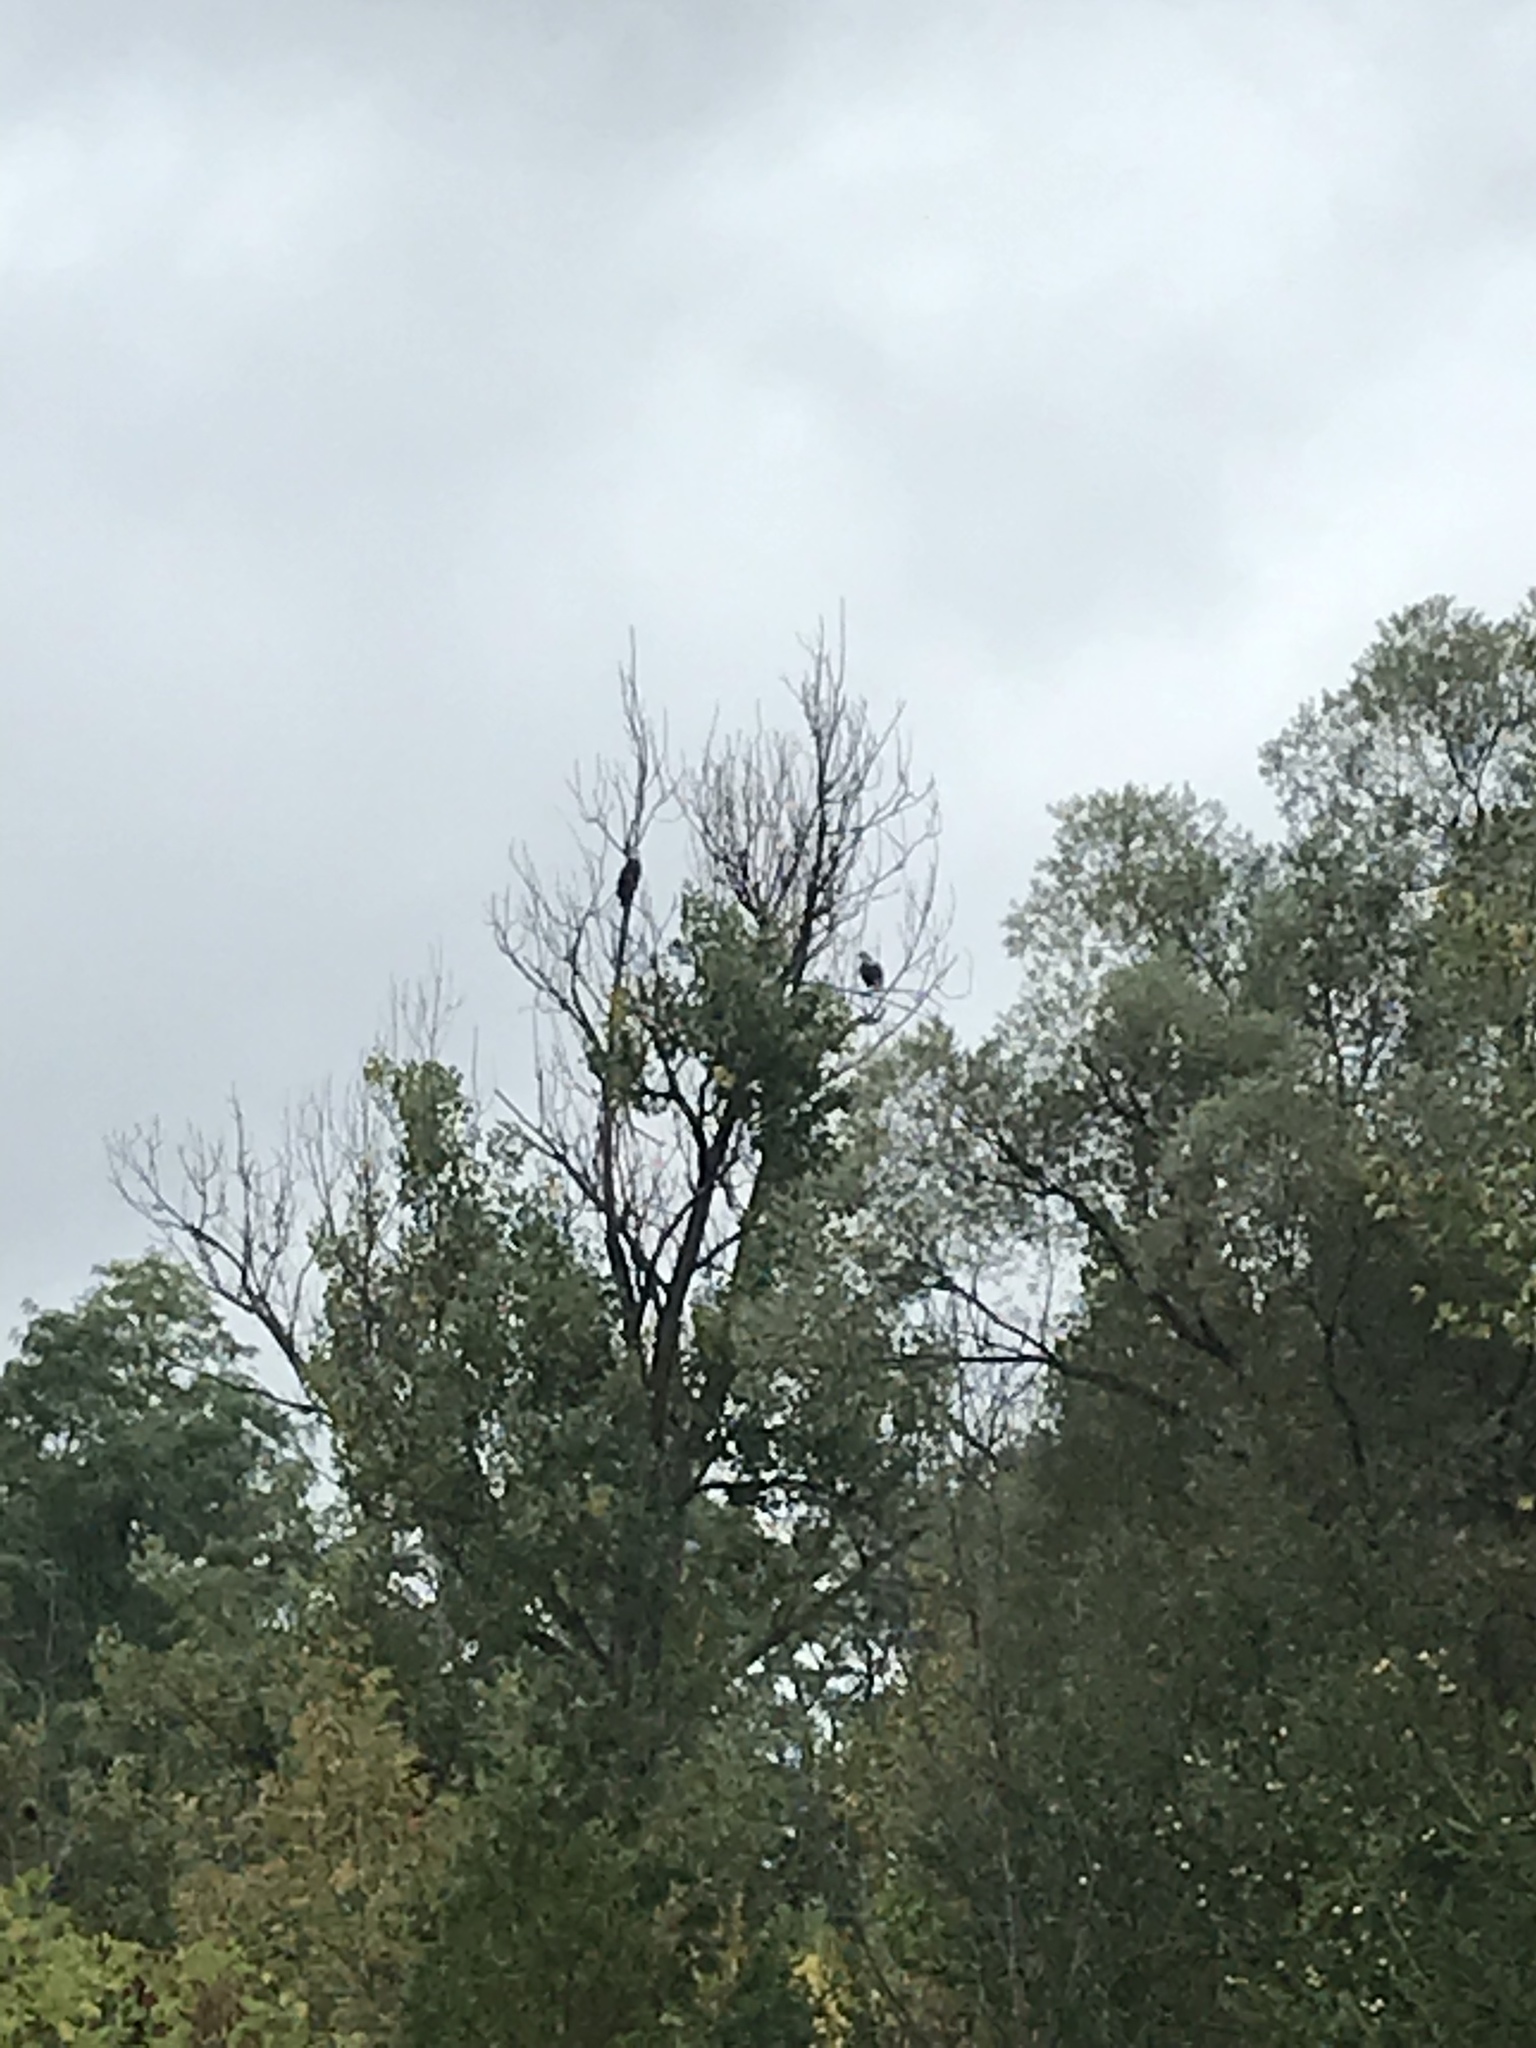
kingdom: Animalia
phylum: Chordata
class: Aves
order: Accipitriformes
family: Accipitridae
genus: Haliaeetus
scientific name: Haliaeetus leucocephalus
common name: Bald eagle
